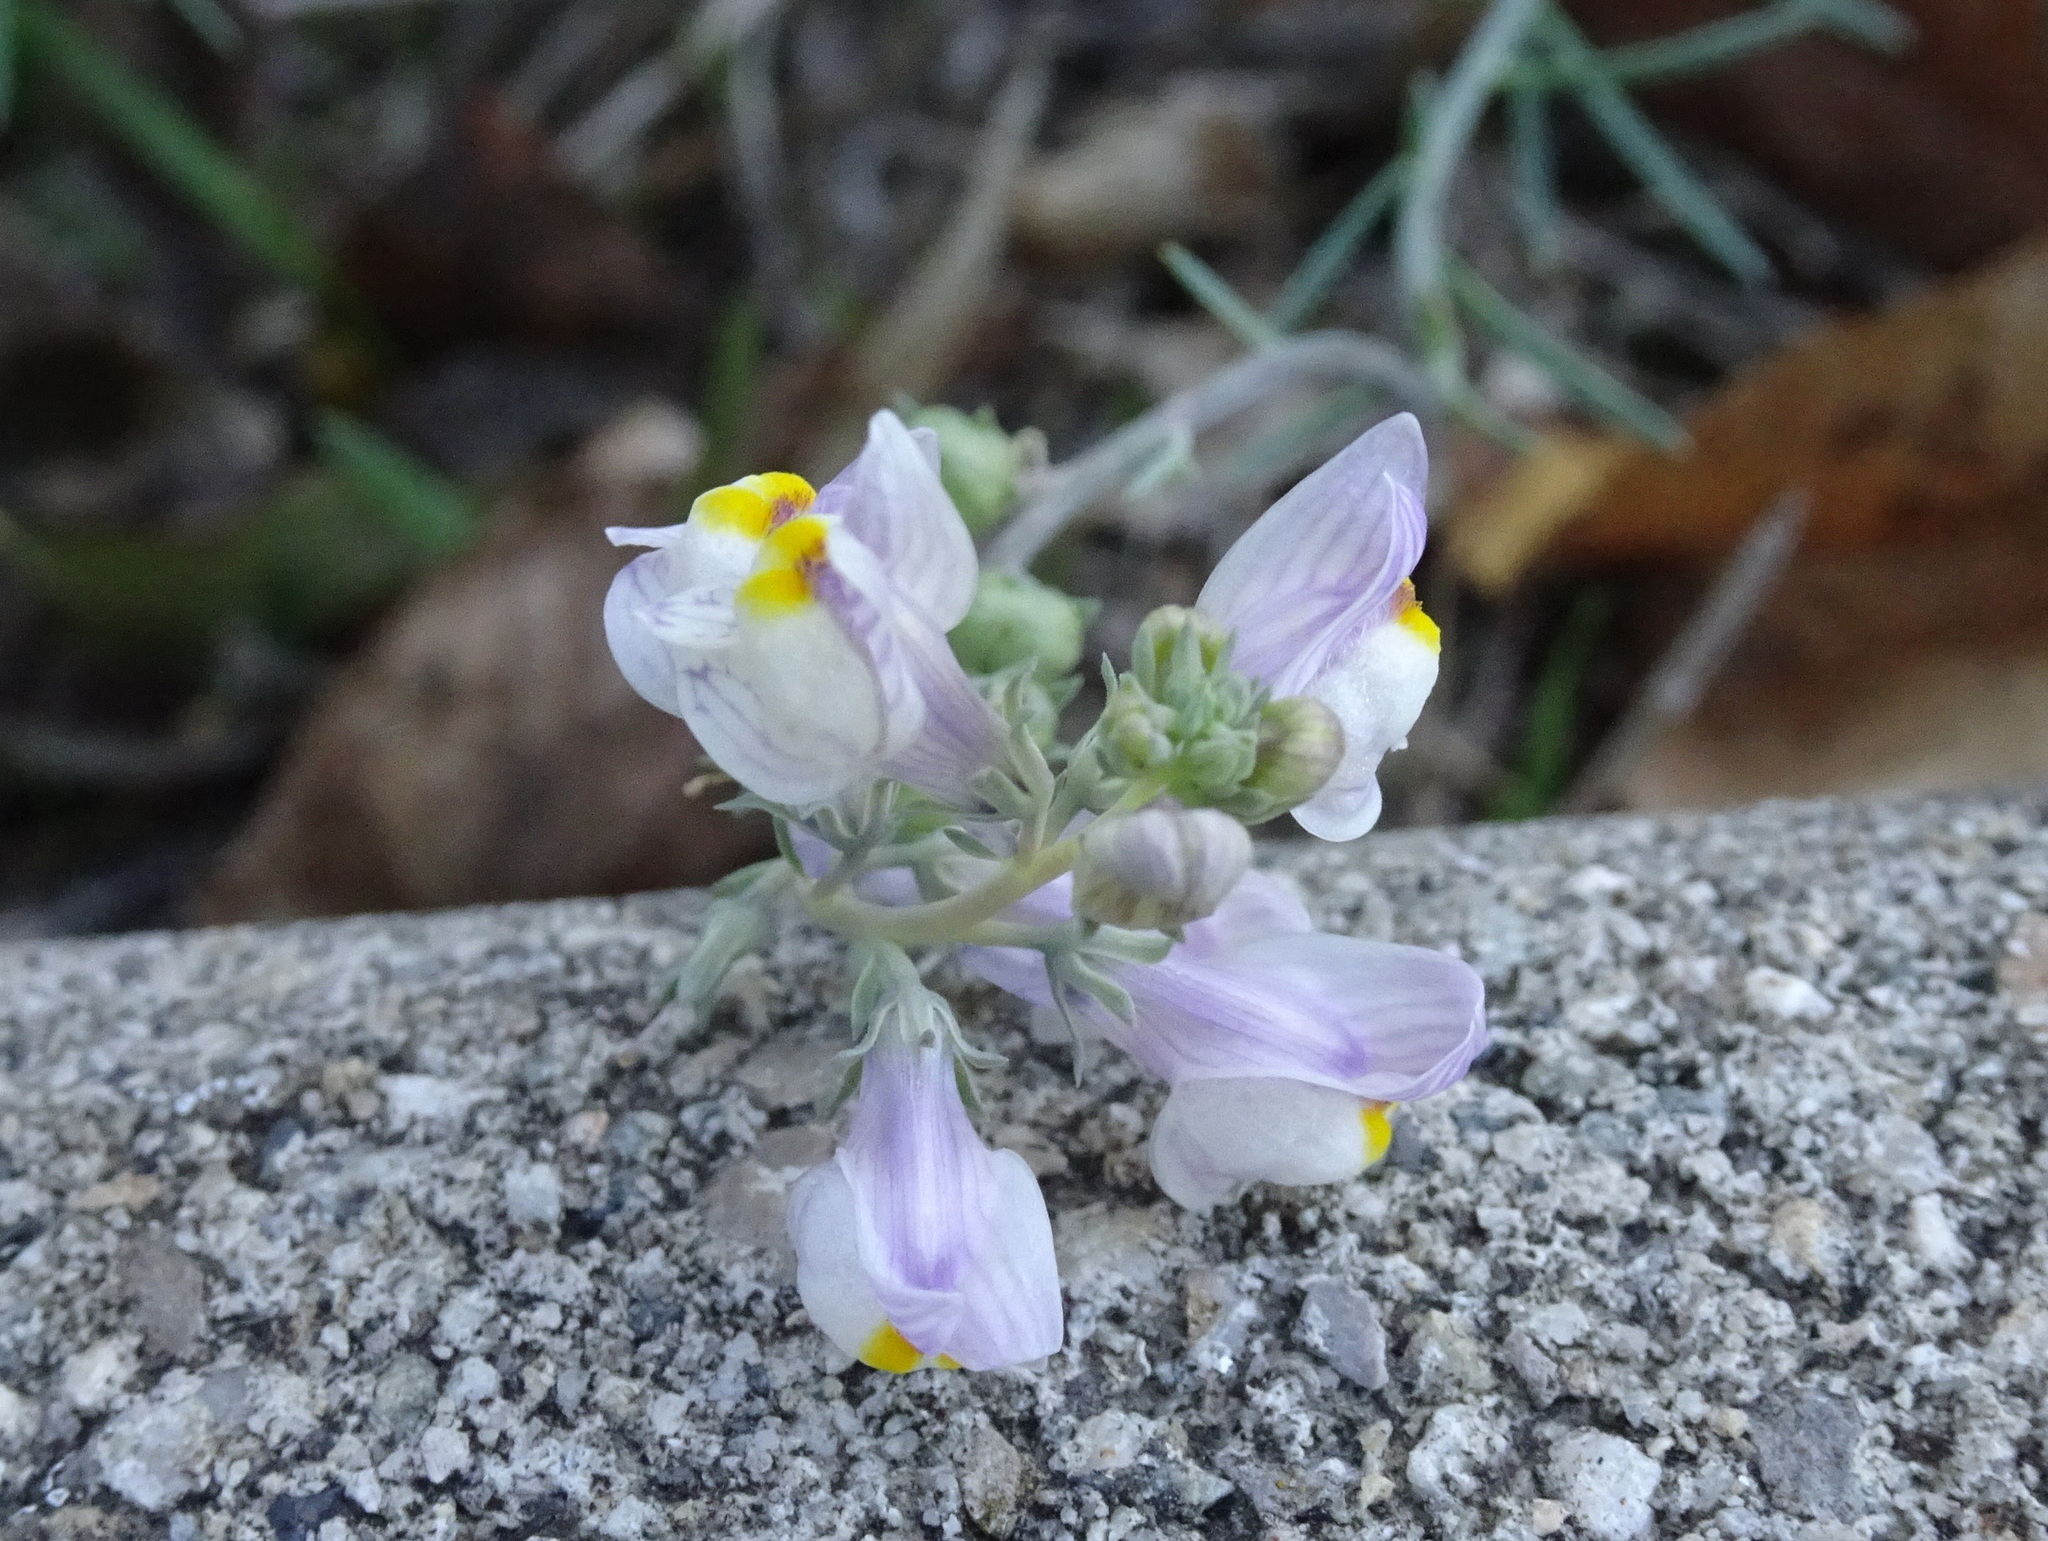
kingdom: Plantae
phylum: Tracheophyta
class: Magnoliopsida
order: Lamiales
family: Plantaginaceae
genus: Linaria
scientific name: Linaria repens
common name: Pale toadflax
